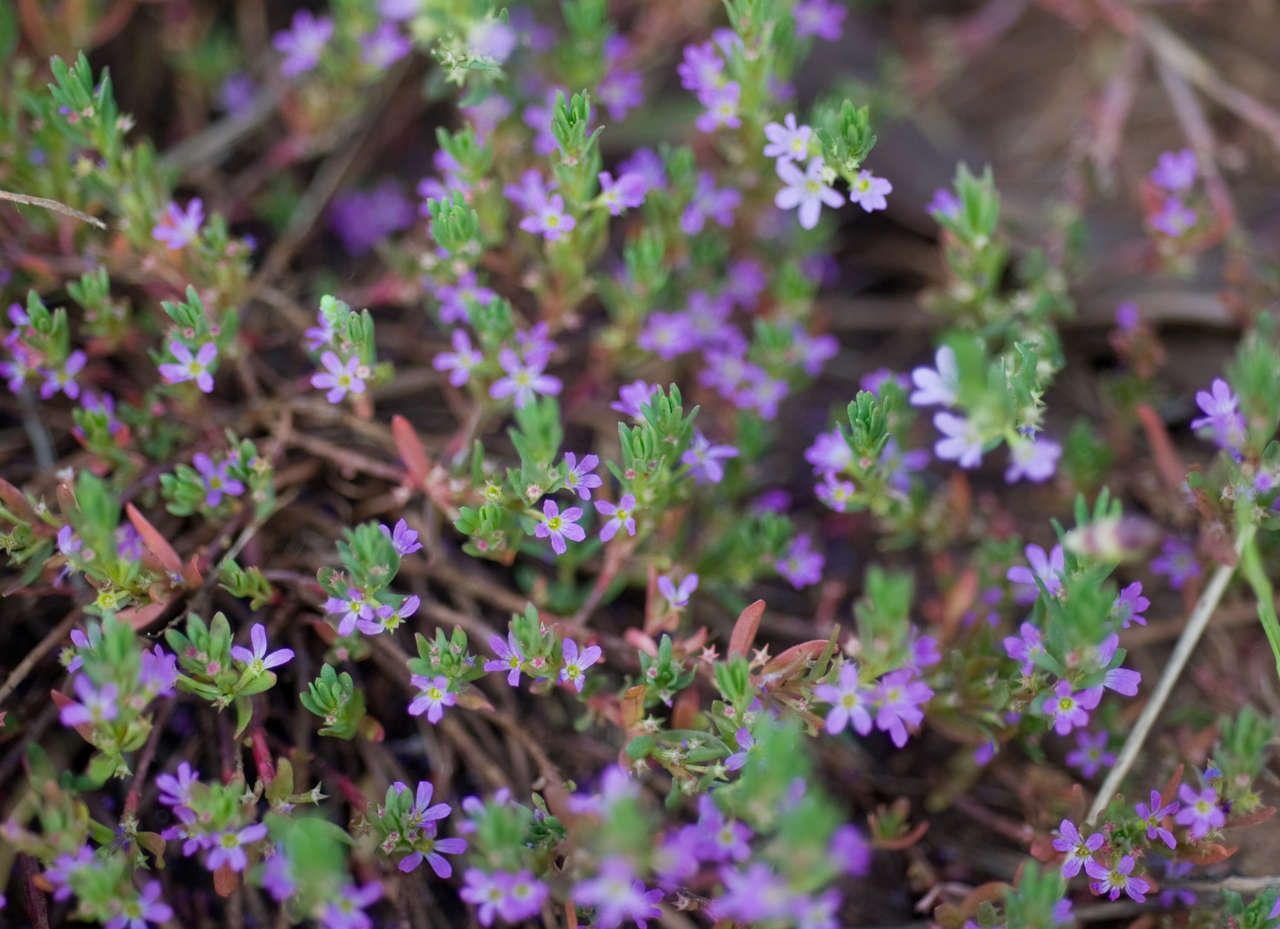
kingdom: Plantae
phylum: Tracheophyta
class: Magnoliopsida
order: Myrtales
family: Lythraceae
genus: Lythrum
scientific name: Lythrum hyssopifolia
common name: Grass-poly
